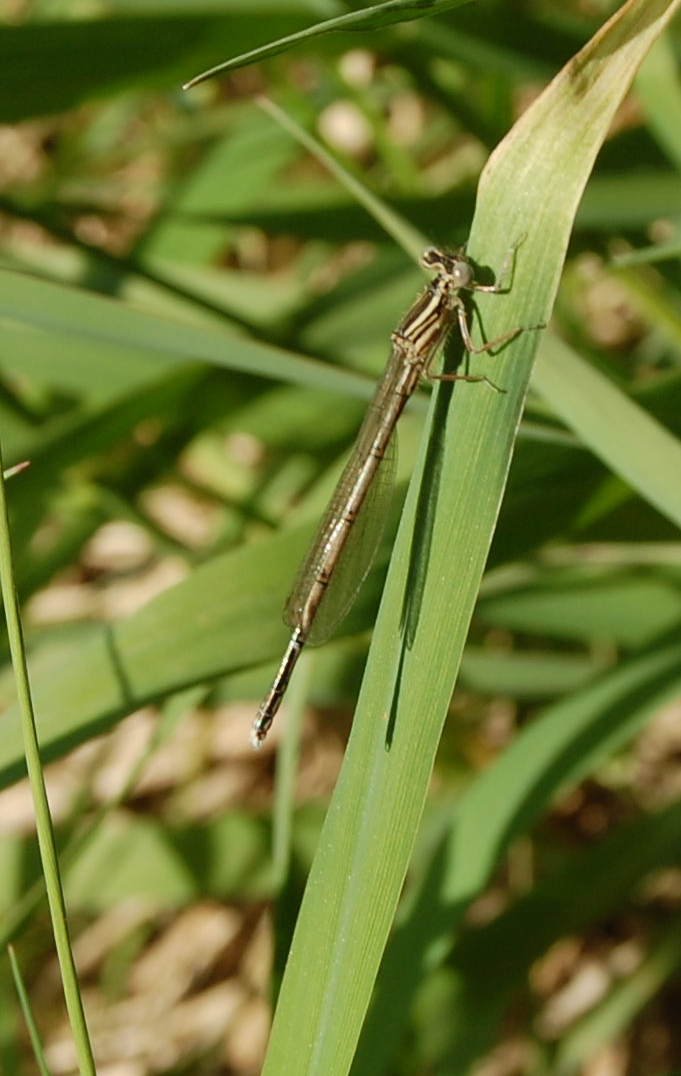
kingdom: Animalia
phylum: Arthropoda
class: Insecta
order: Odonata
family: Platycnemididae
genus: Platycnemis
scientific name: Platycnemis pennipes
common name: White-legged damselfly
